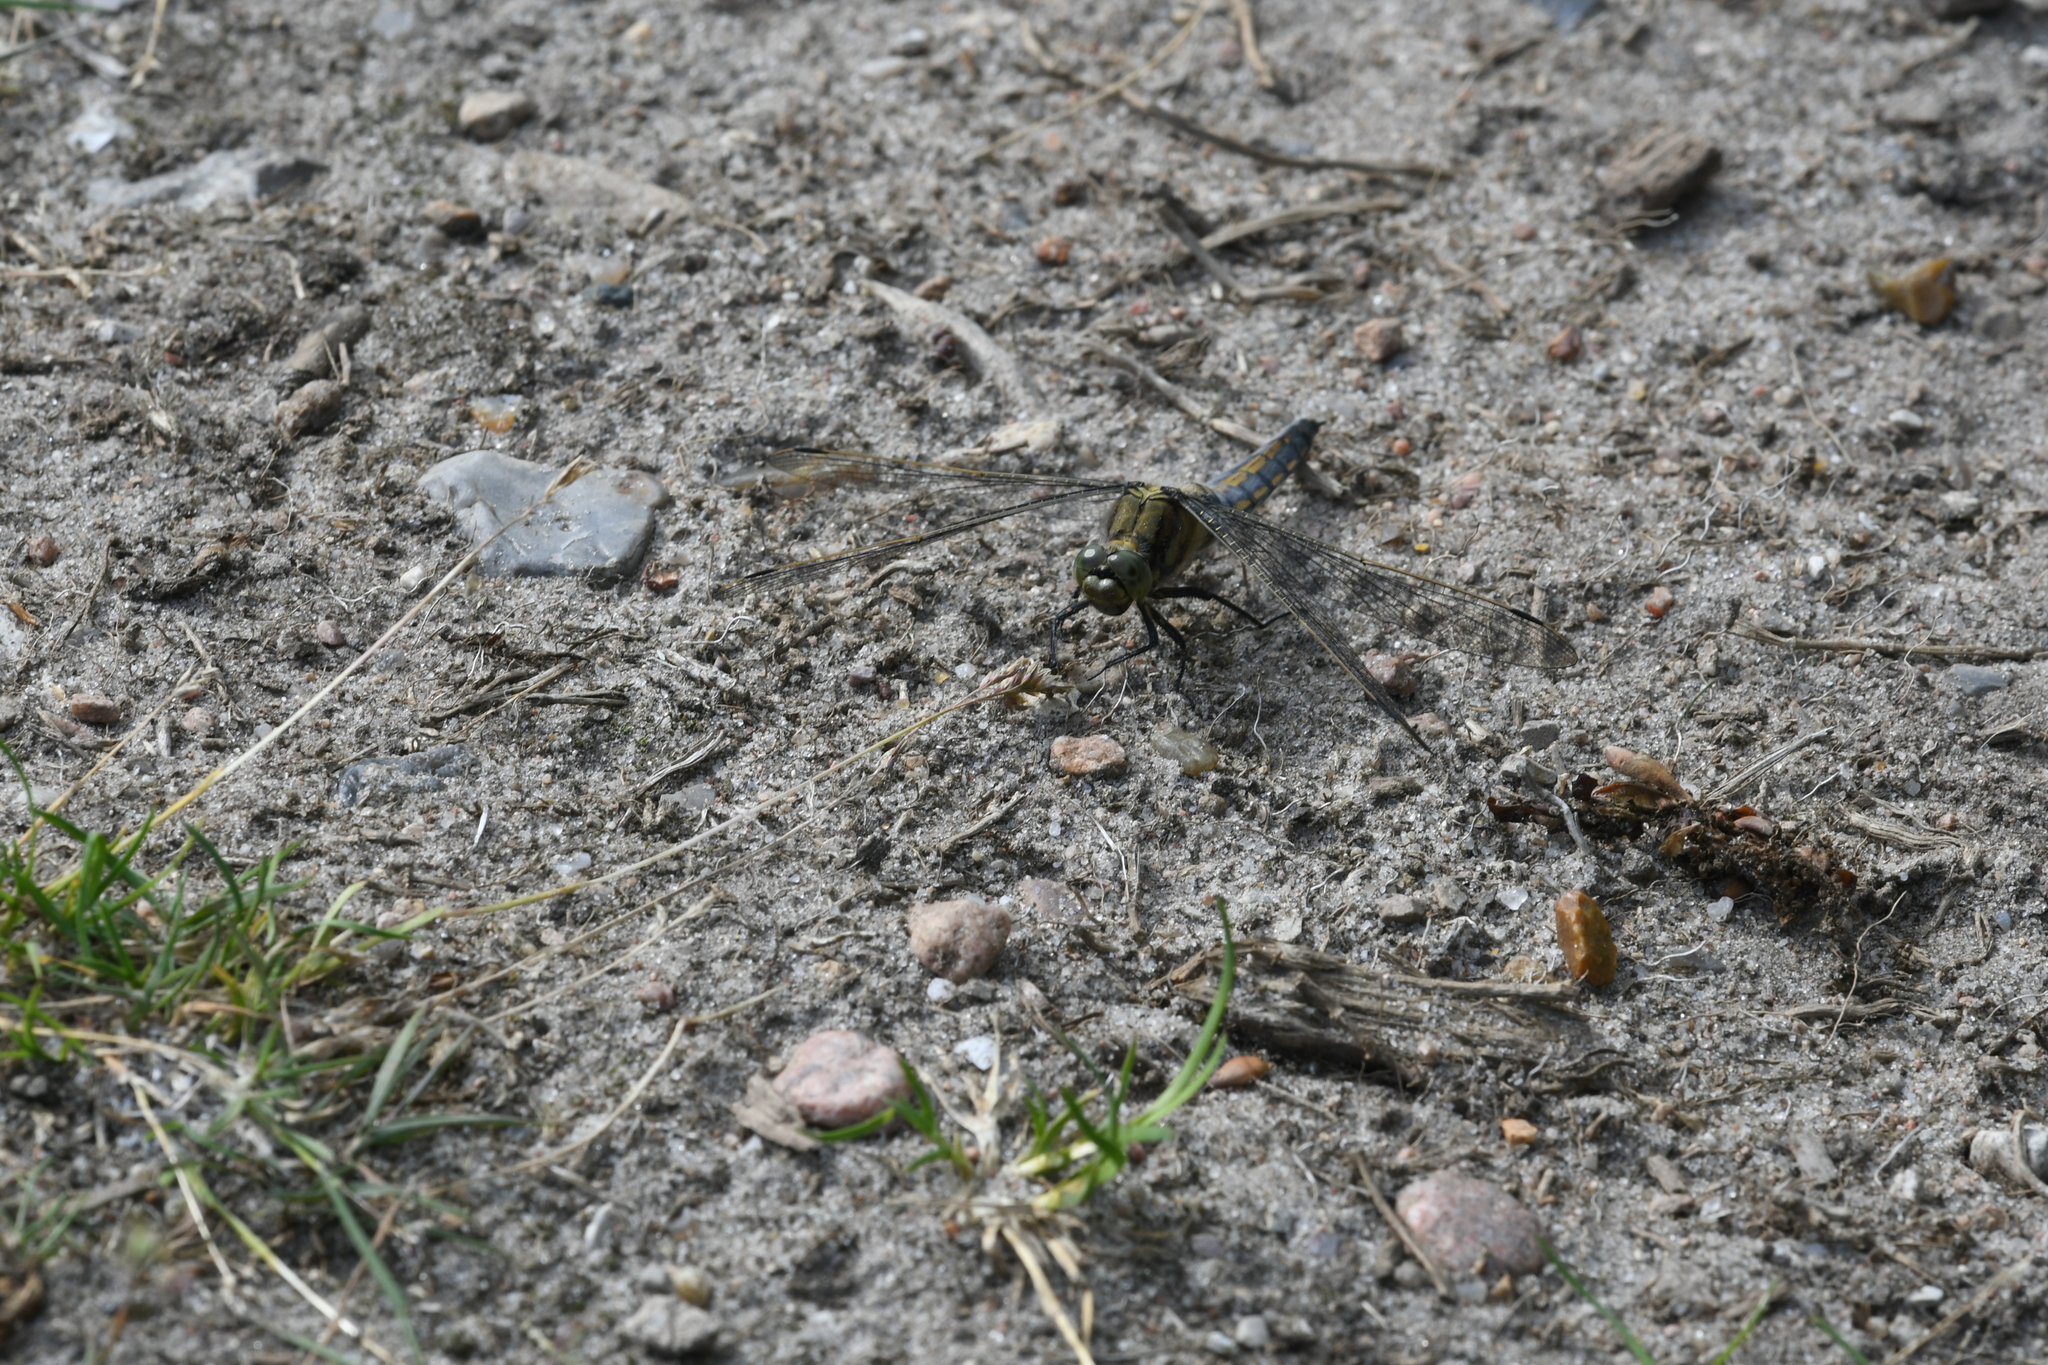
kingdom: Animalia
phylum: Arthropoda
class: Insecta
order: Odonata
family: Libellulidae
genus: Orthetrum
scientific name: Orthetrum cancellatum
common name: Black-tailed skimmer
